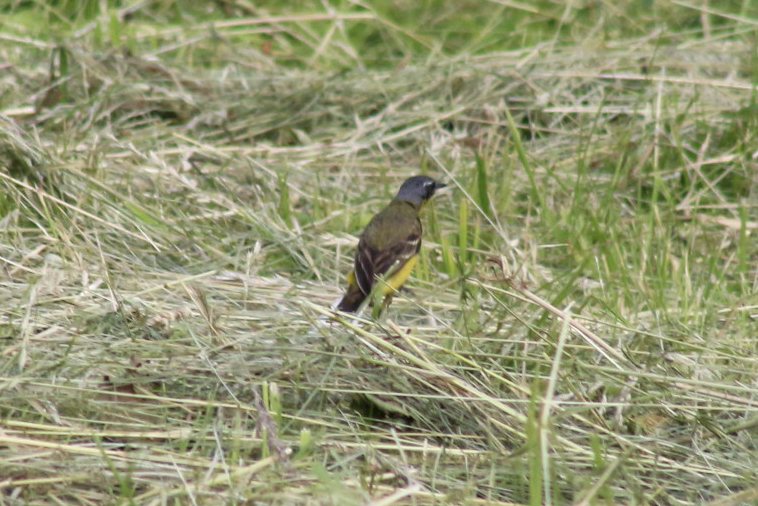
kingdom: Animalia
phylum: Chordata
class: Aves
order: Passeriformes
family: Motacillidae
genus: Motacilla
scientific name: Motacilla flava
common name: Western yellow wagtail
